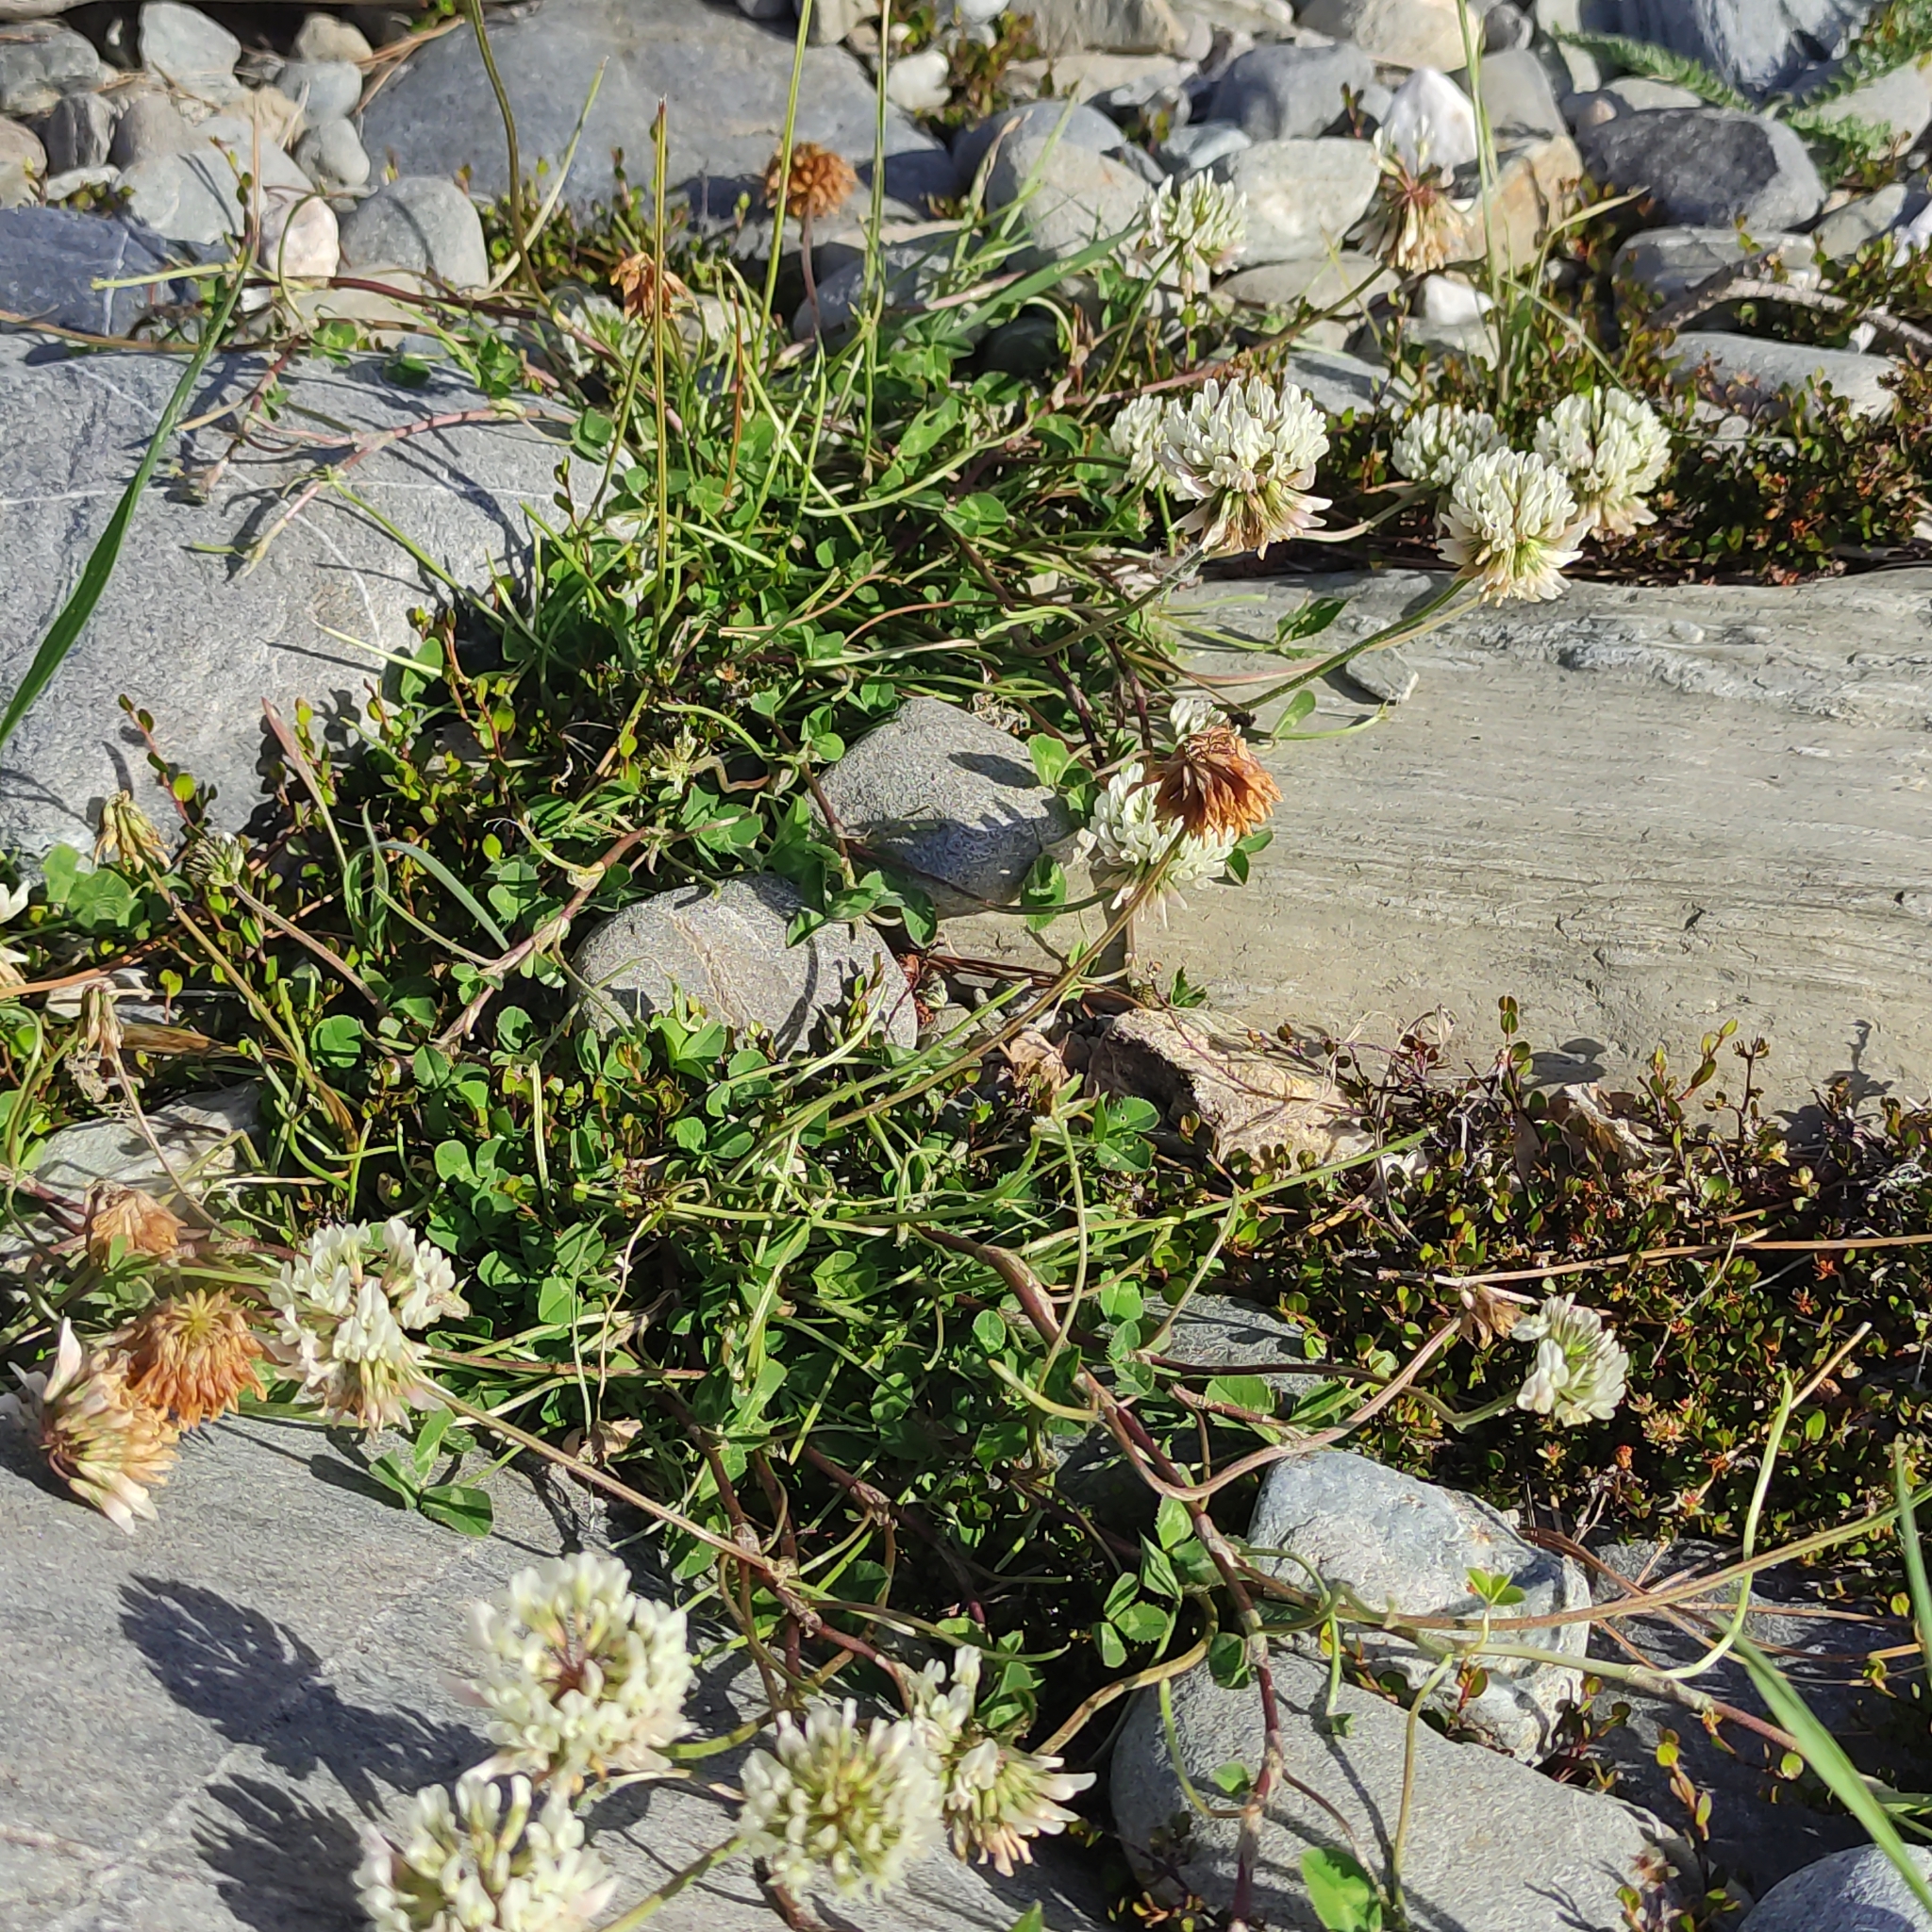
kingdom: Plantae
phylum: Tracheophyta
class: Magnoliopsida
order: Fabales
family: Fabaceae
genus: Trifolium
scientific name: Trifolium repens
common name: White clover
